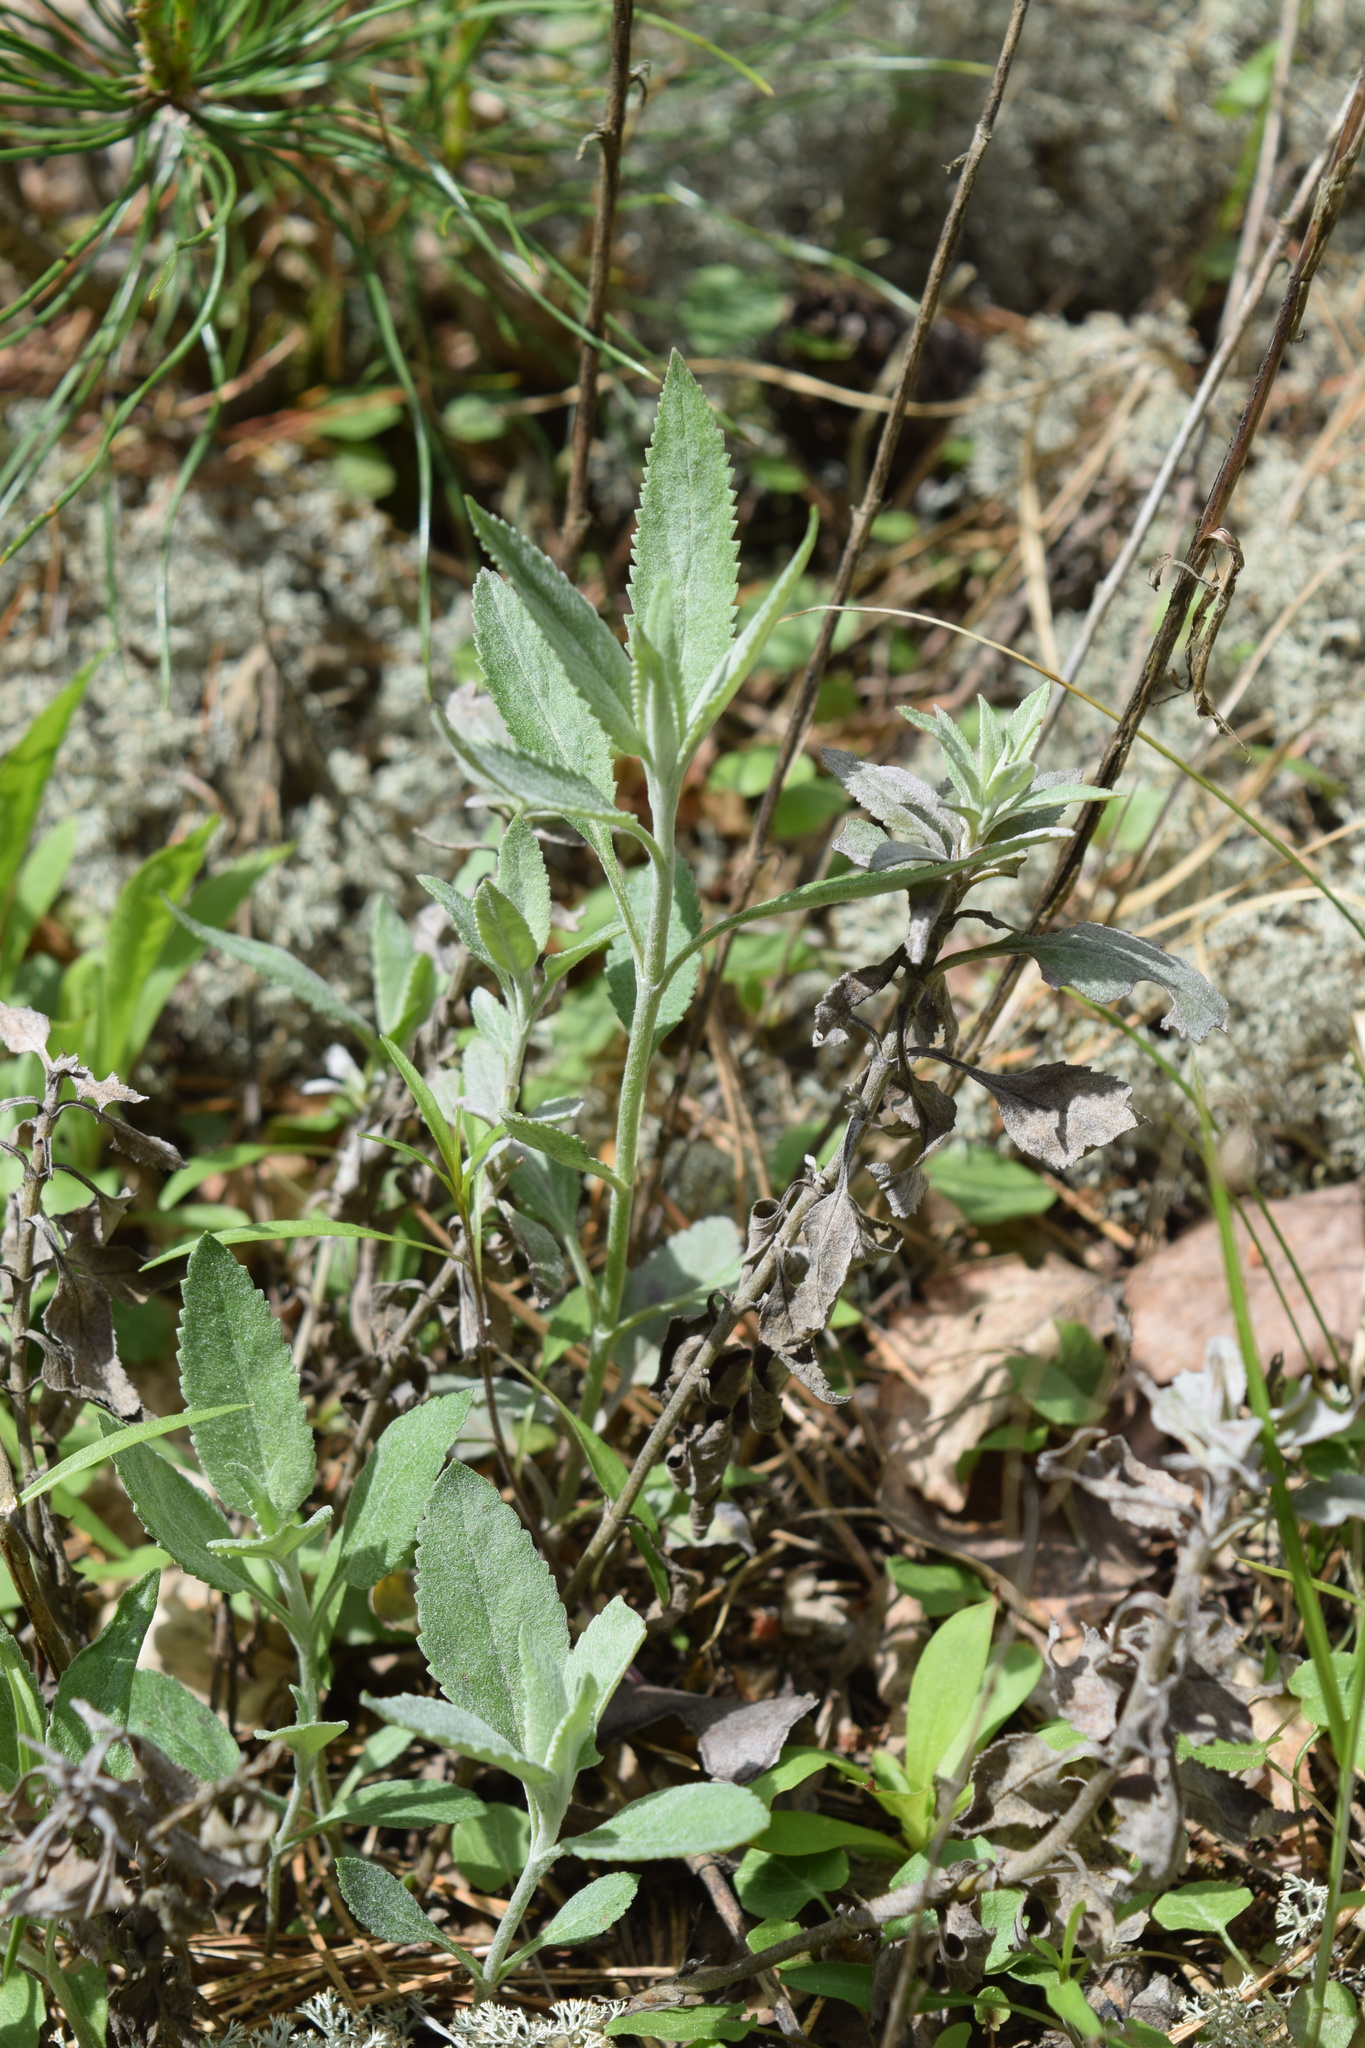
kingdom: Plantae
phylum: Tracheophyta
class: Magnoliopsida
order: Lamiales
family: Plantaginaceae
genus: Veronica
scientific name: Veronica incana
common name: Silver speedwell
